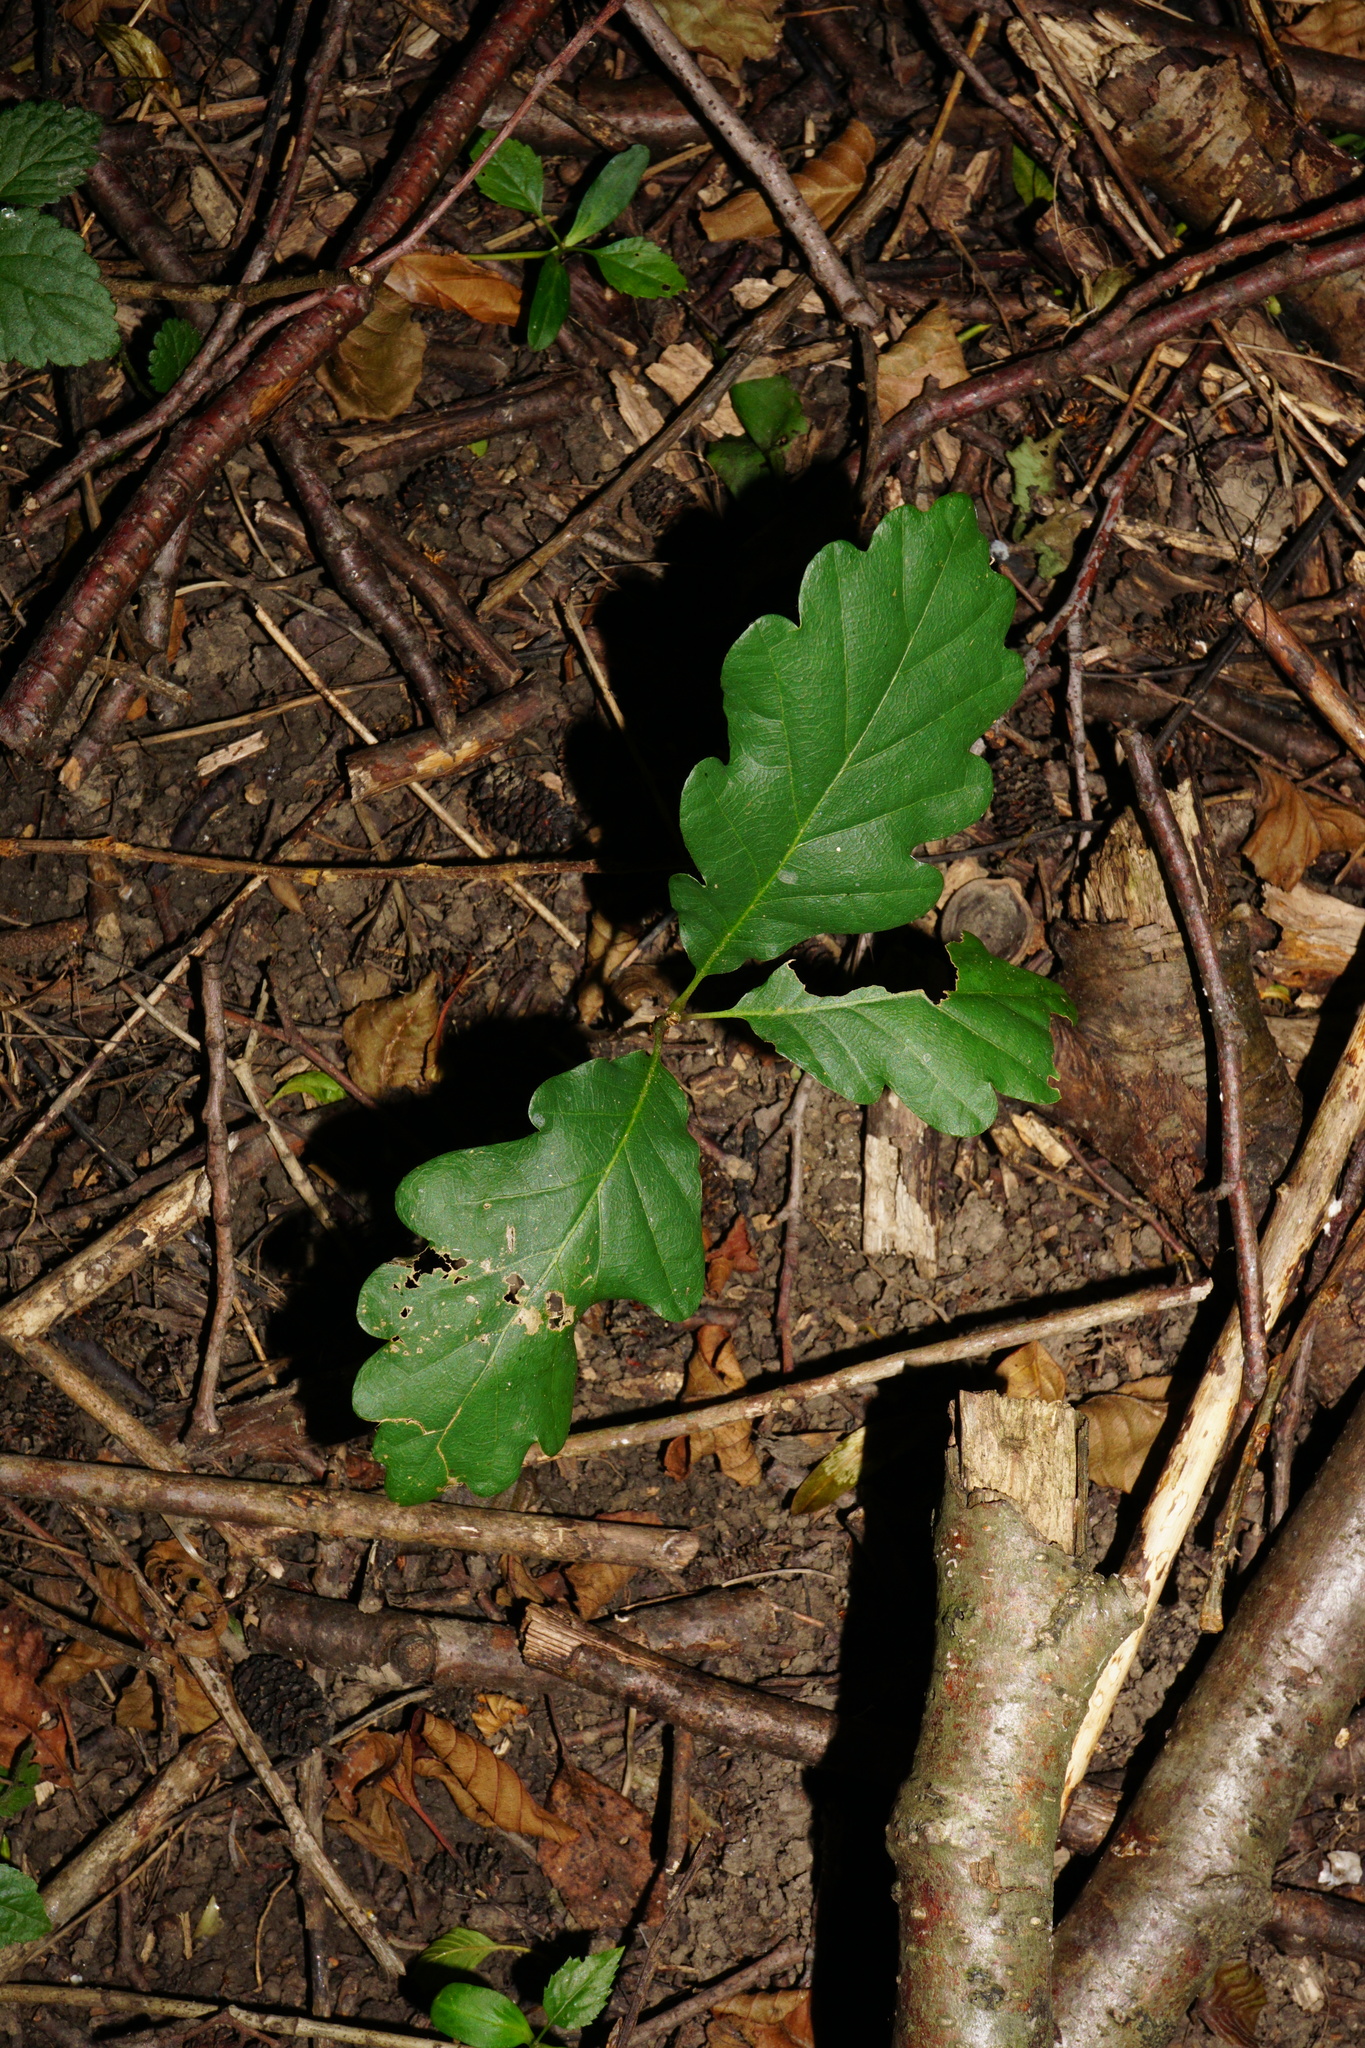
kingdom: Plantae
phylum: Tracheophyta
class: Magnoliopsida
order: Fagales
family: Fagaceae
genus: Quercus
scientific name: Quercus petraea
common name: Sessile oak
